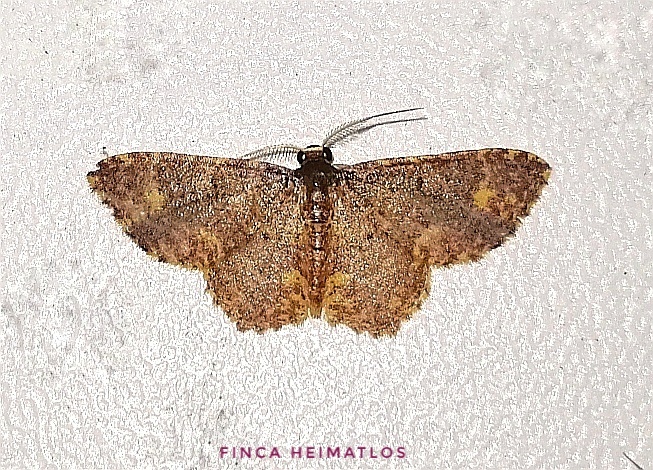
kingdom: Animalia
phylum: Arthropoda
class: Insecta
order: Lepidoptera
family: Geometridae
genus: Eois
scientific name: Eois lunifera
